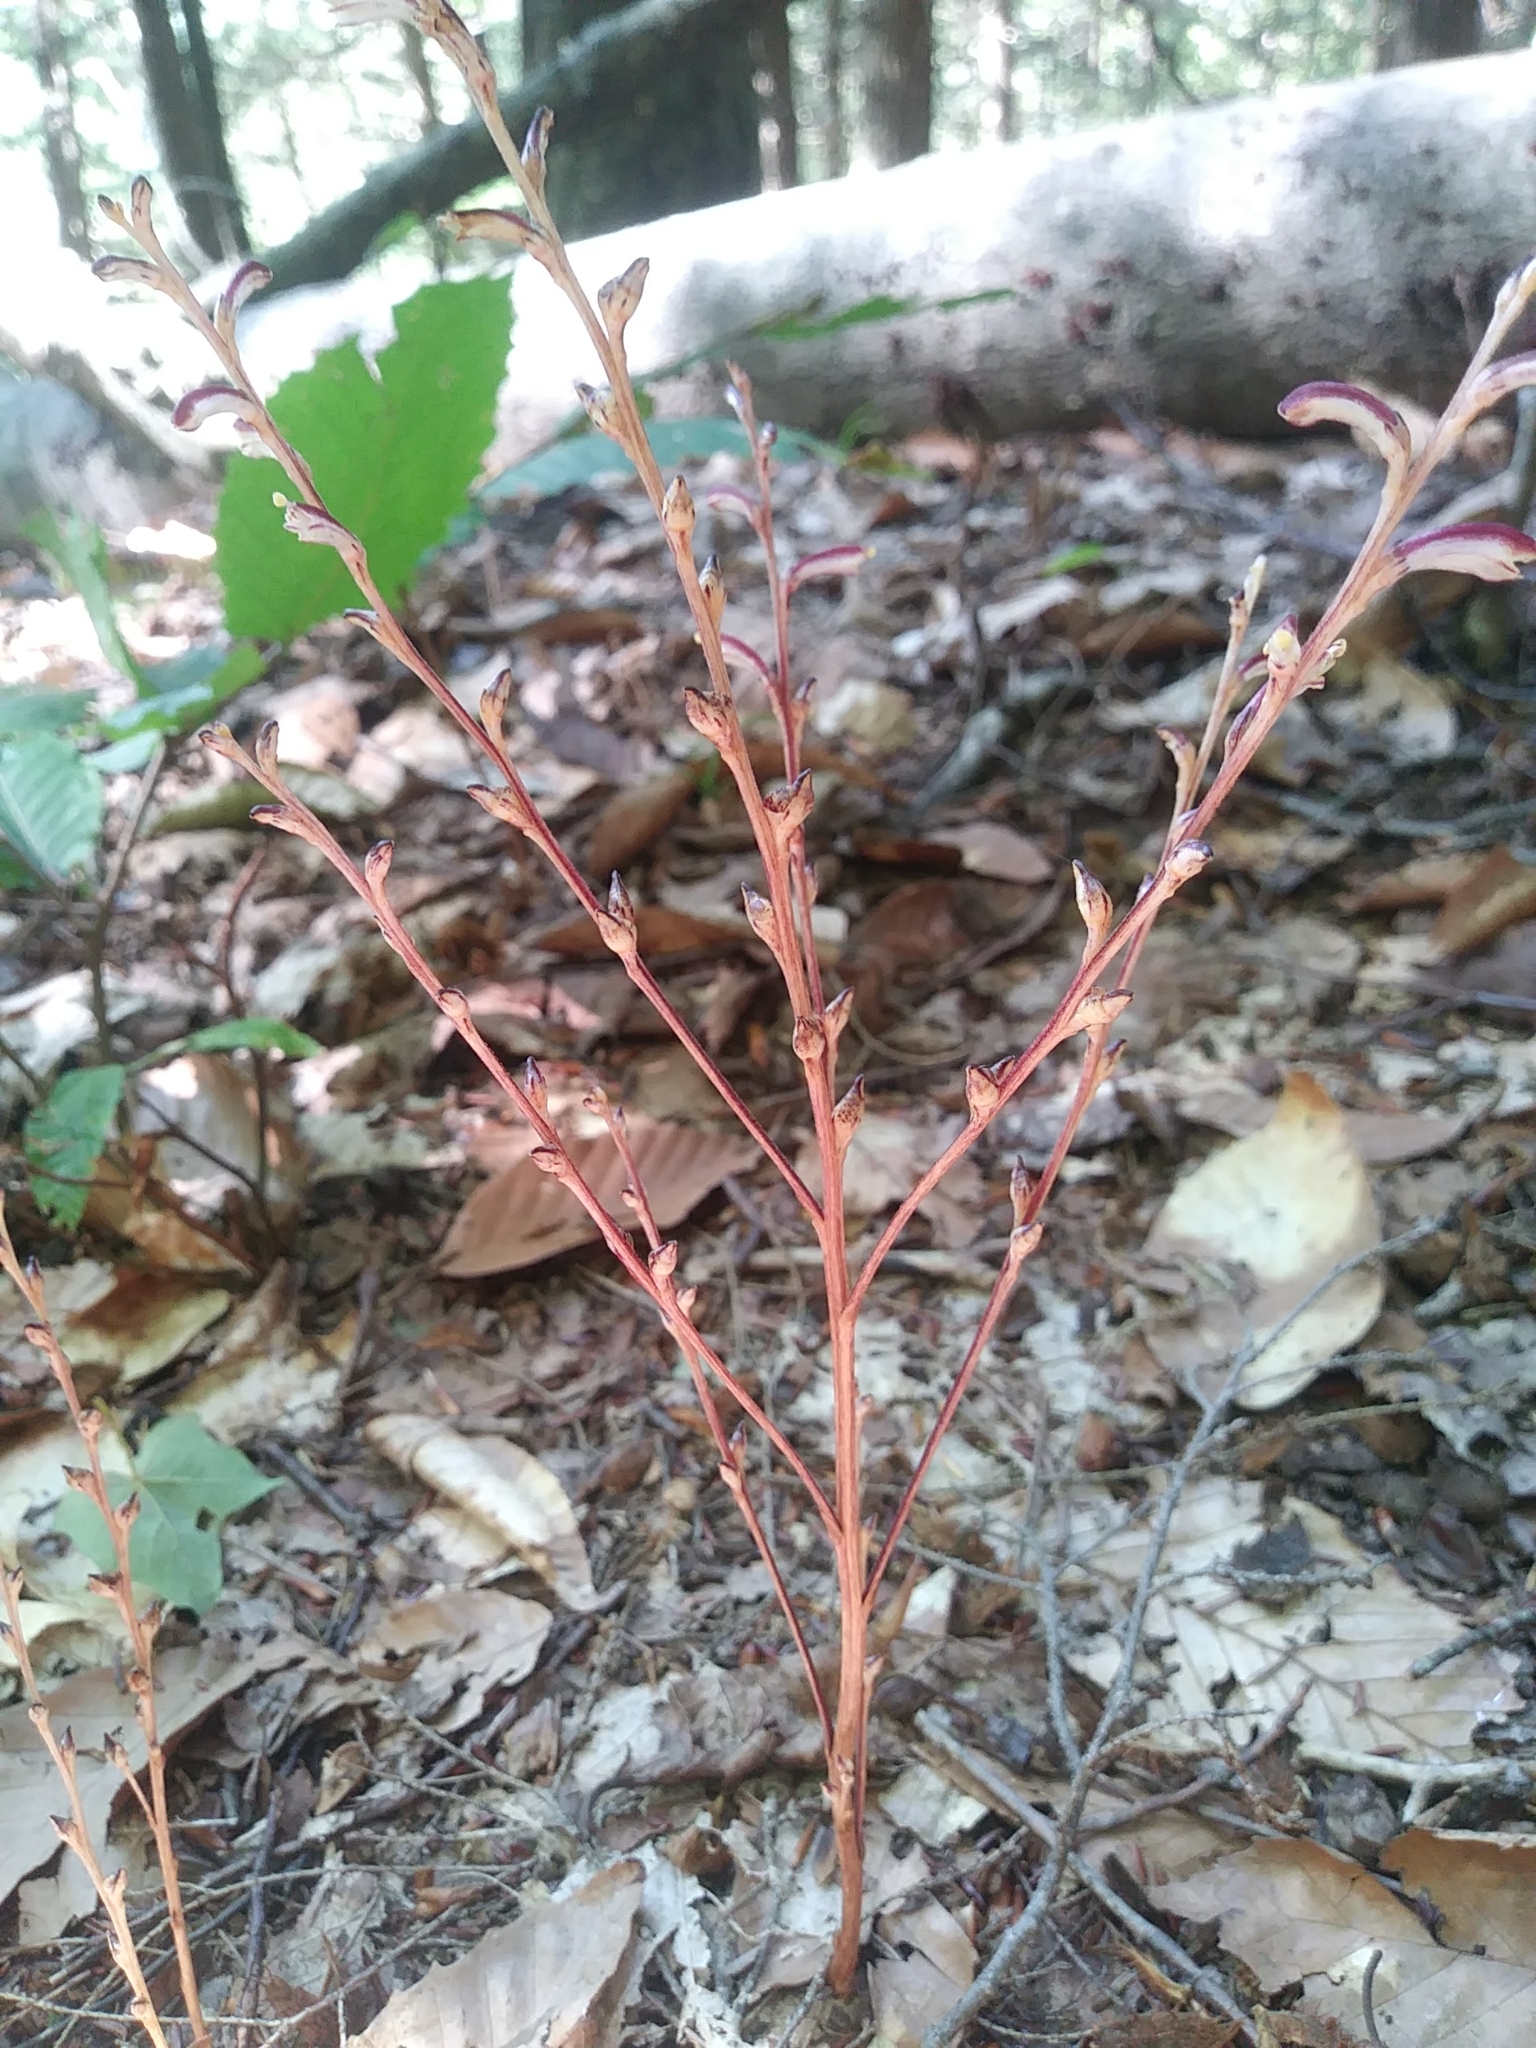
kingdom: Plantae
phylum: Tracheophyta
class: Magnoliopsida
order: Lamiales
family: Orobanchaceae
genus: Epifagus
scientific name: Epifagus virginiana
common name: Beechdrops
